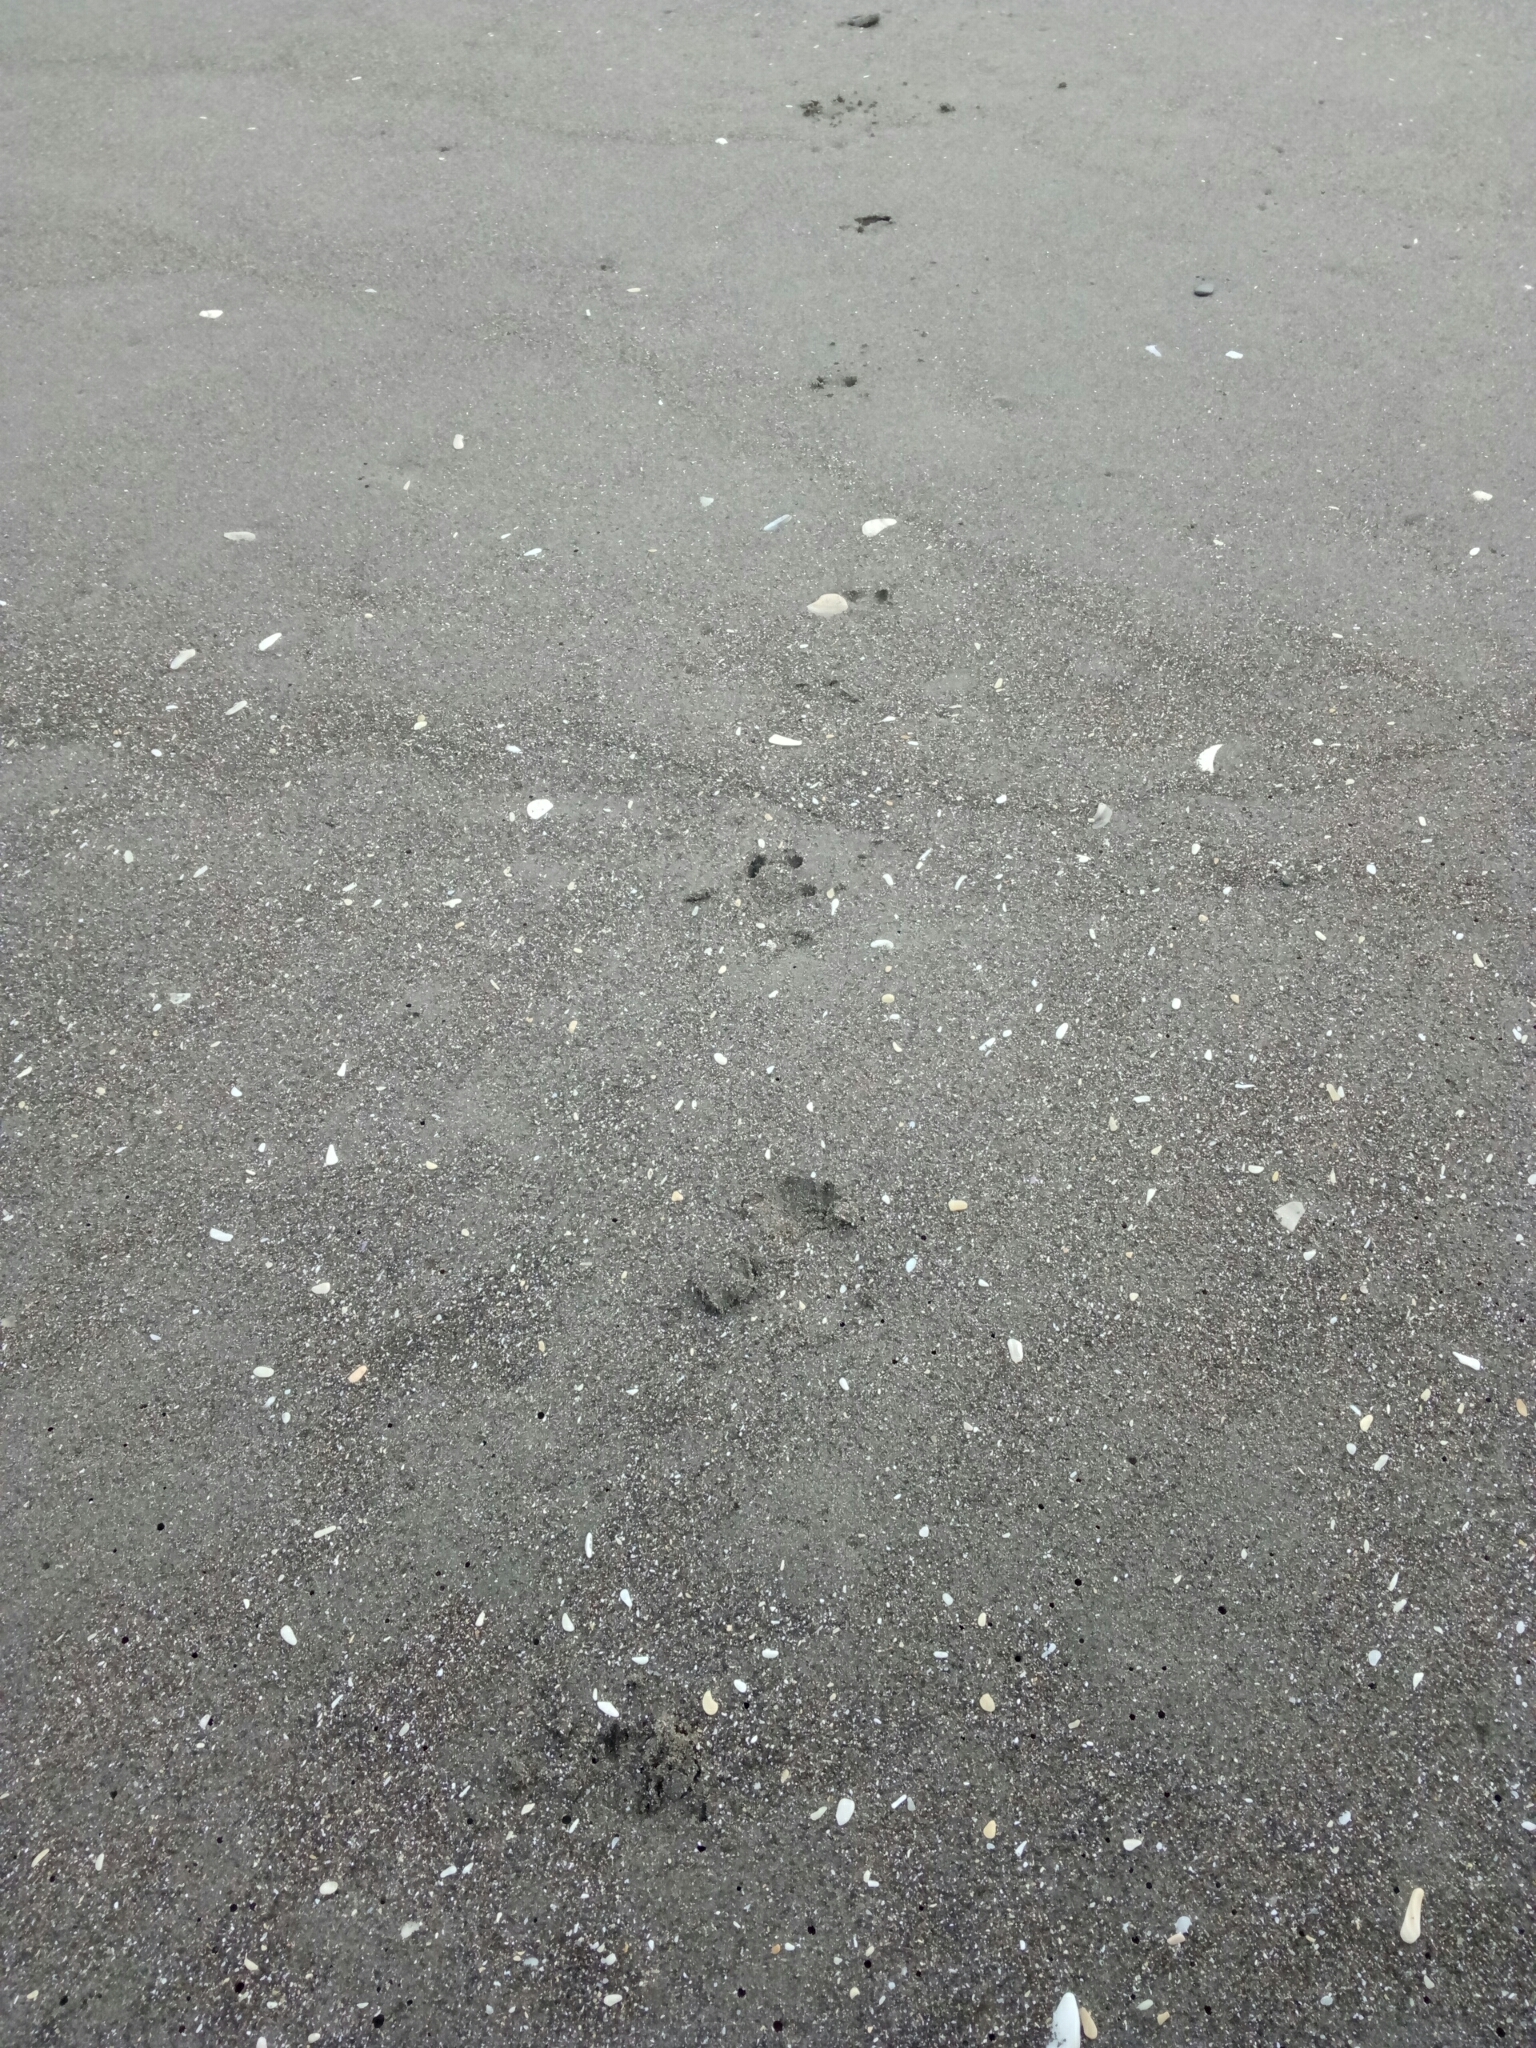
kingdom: Animalia
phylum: Chordata
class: Aves
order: Sphenisciformes
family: Spheniscidae
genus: Eudyptula
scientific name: Eudyptula minor
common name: Little penguin
